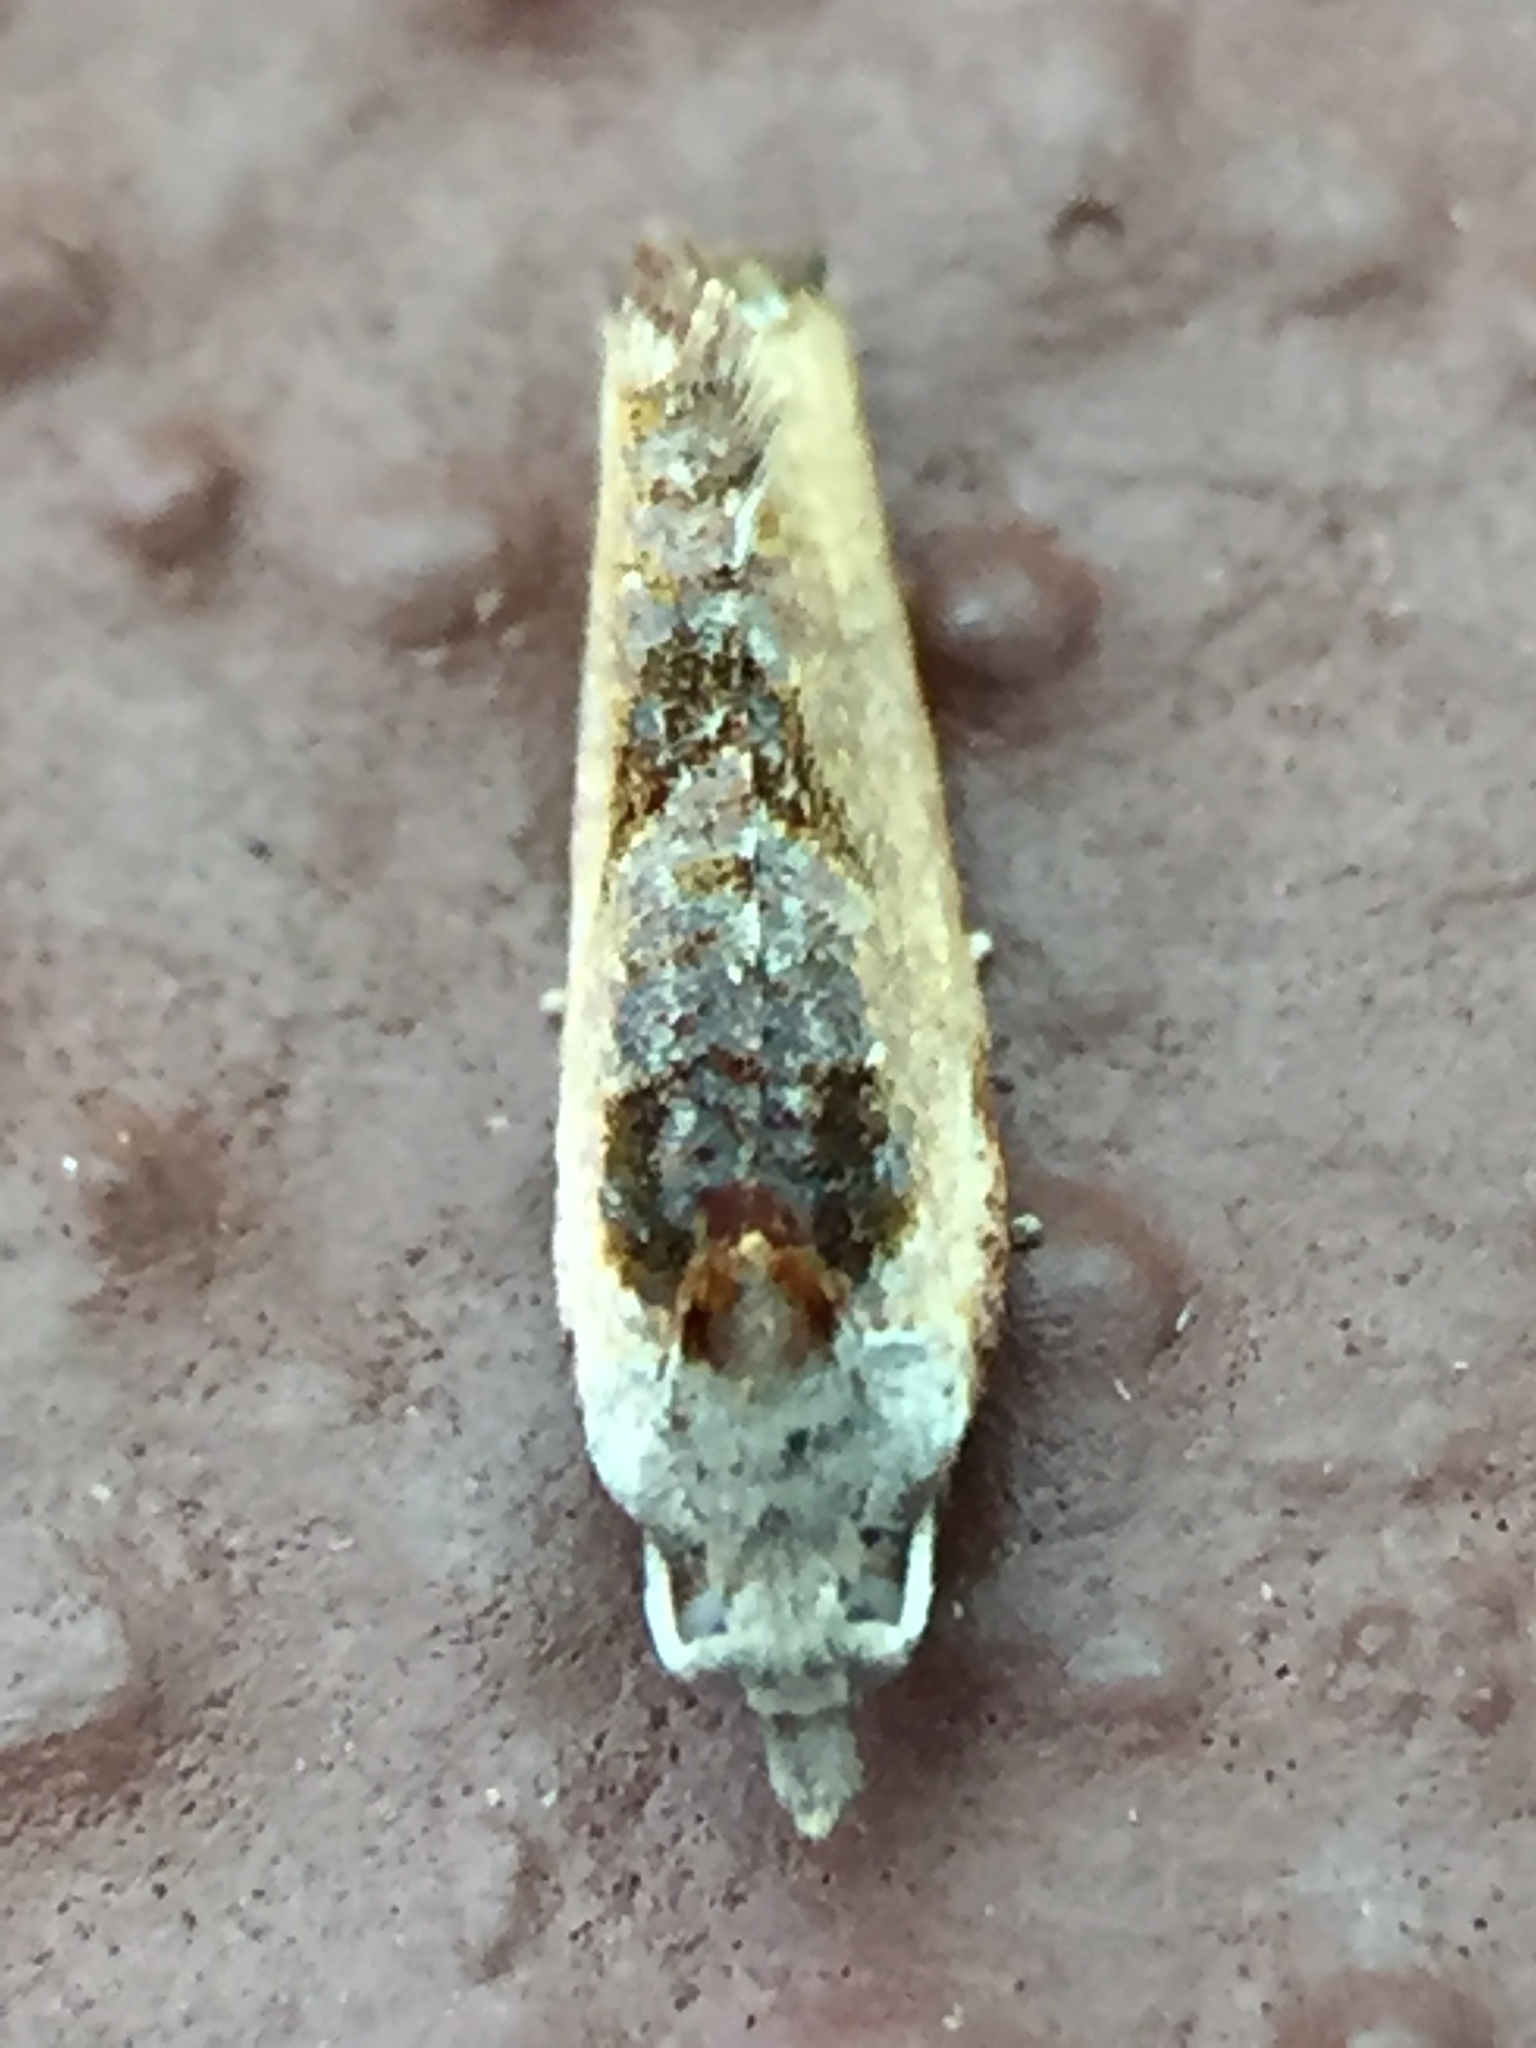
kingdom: Animalia
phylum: Arthropoda
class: Insecta
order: Lepidoptera
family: Tortricidae
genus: Pyrgotis
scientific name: Pyrgotis plagiatana
